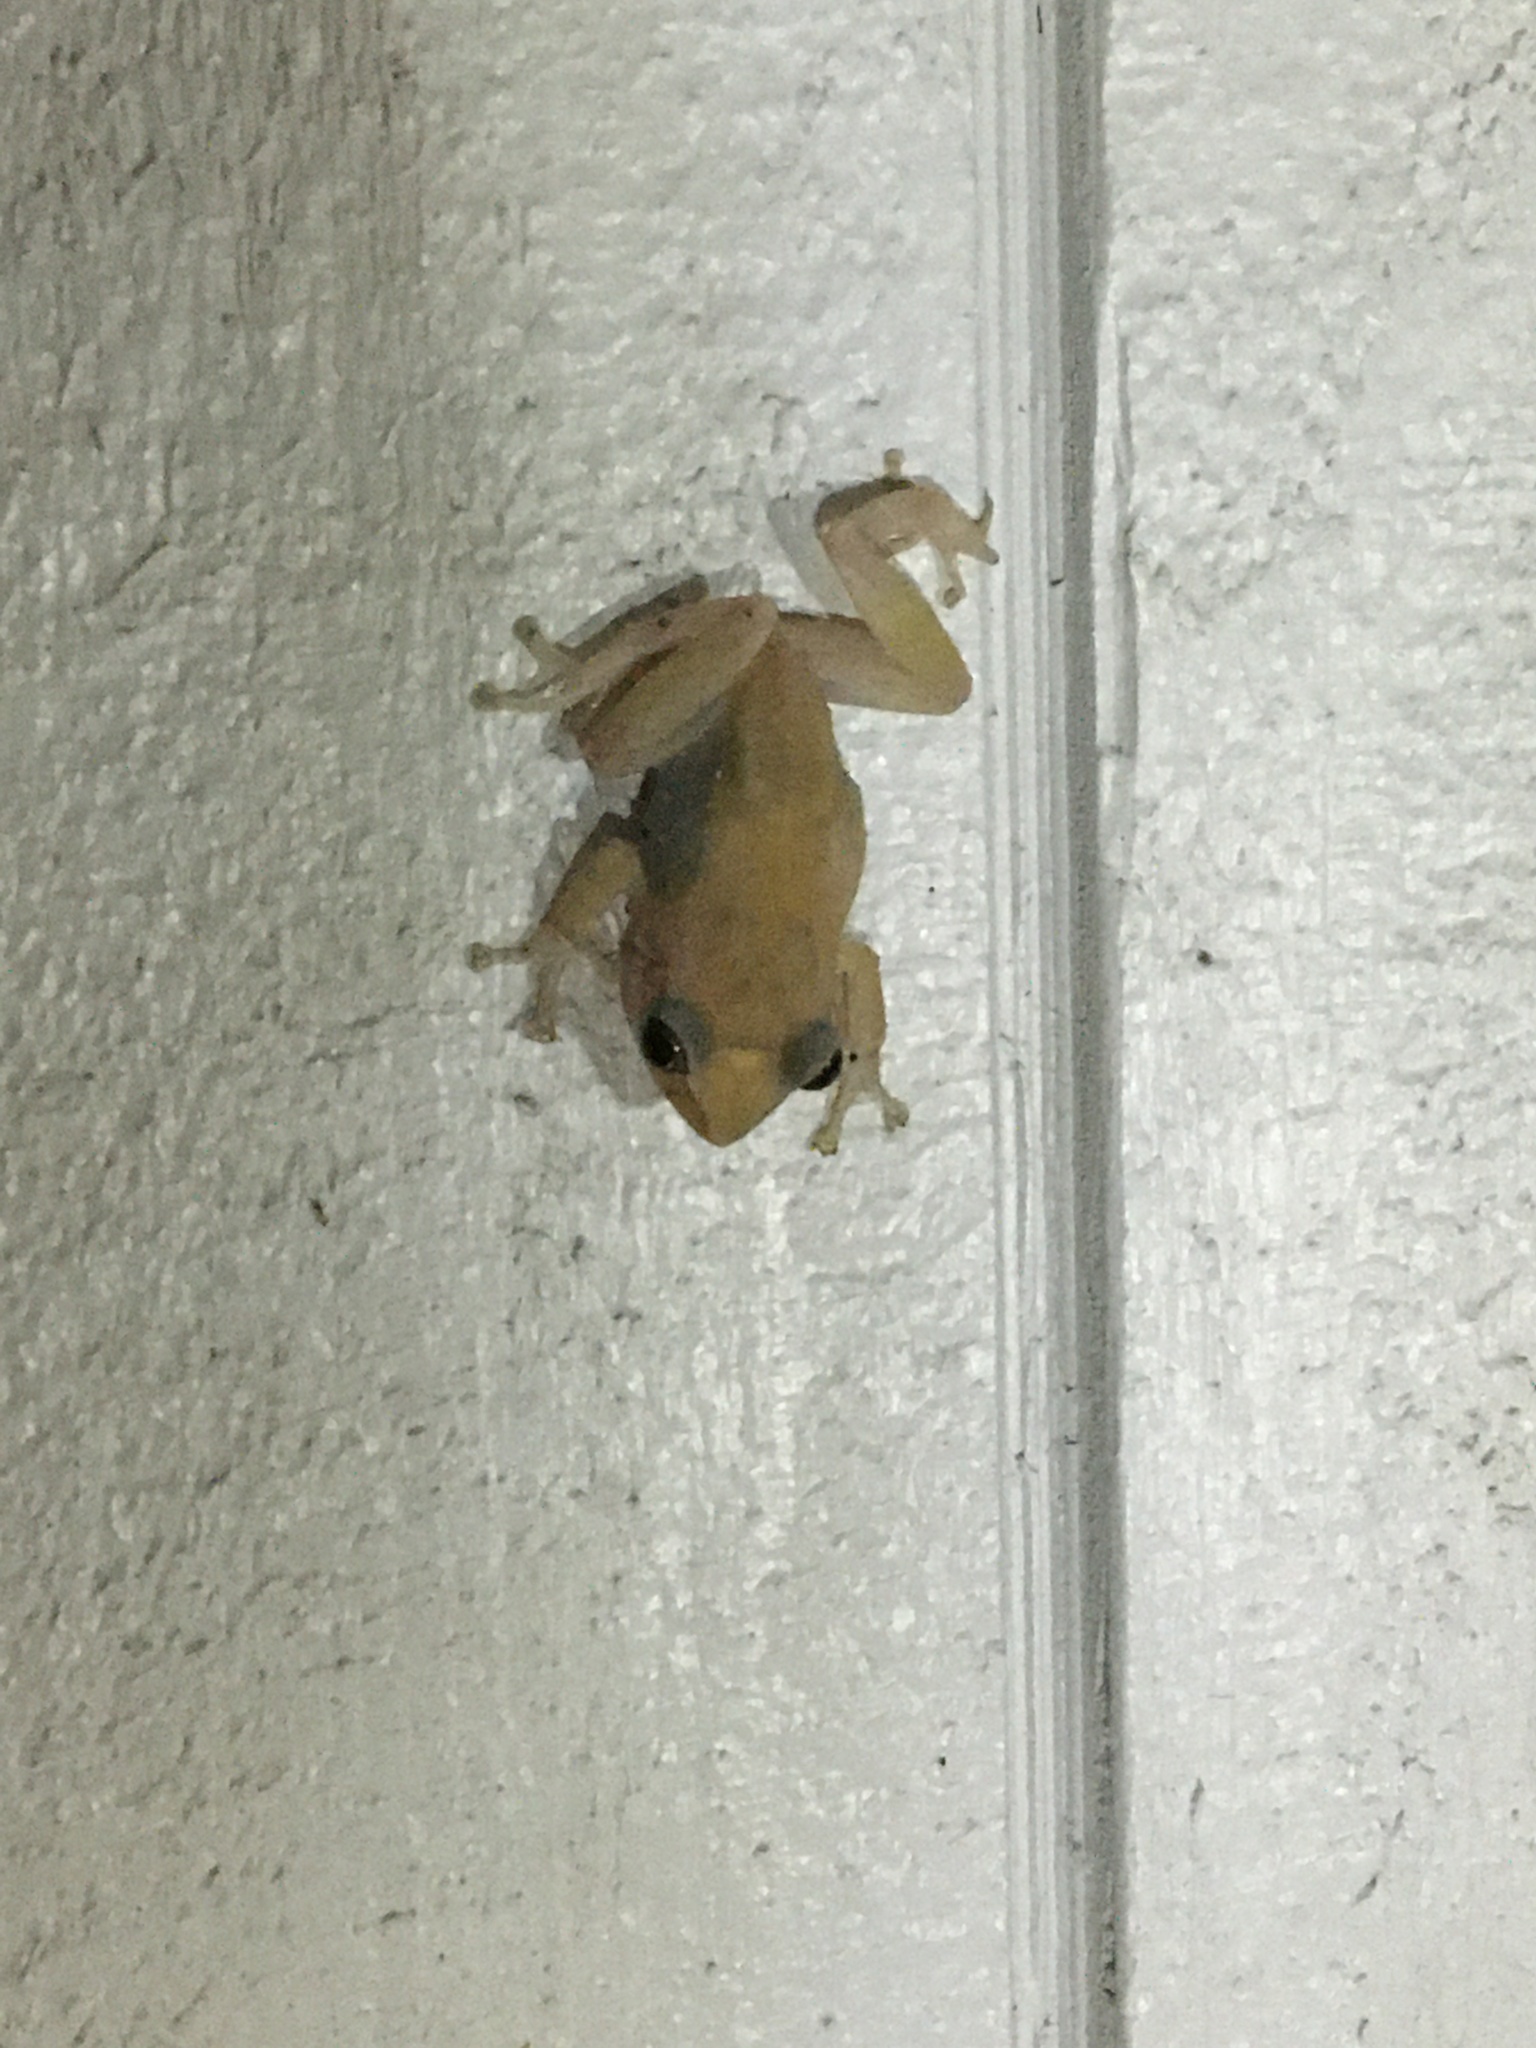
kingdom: Animalia
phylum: Chordata
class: Amphibia
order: Anura
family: Eleutherodactylidae
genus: Eleutherodactylus
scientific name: Eleutherodactylus coqui
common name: Coqui frog
